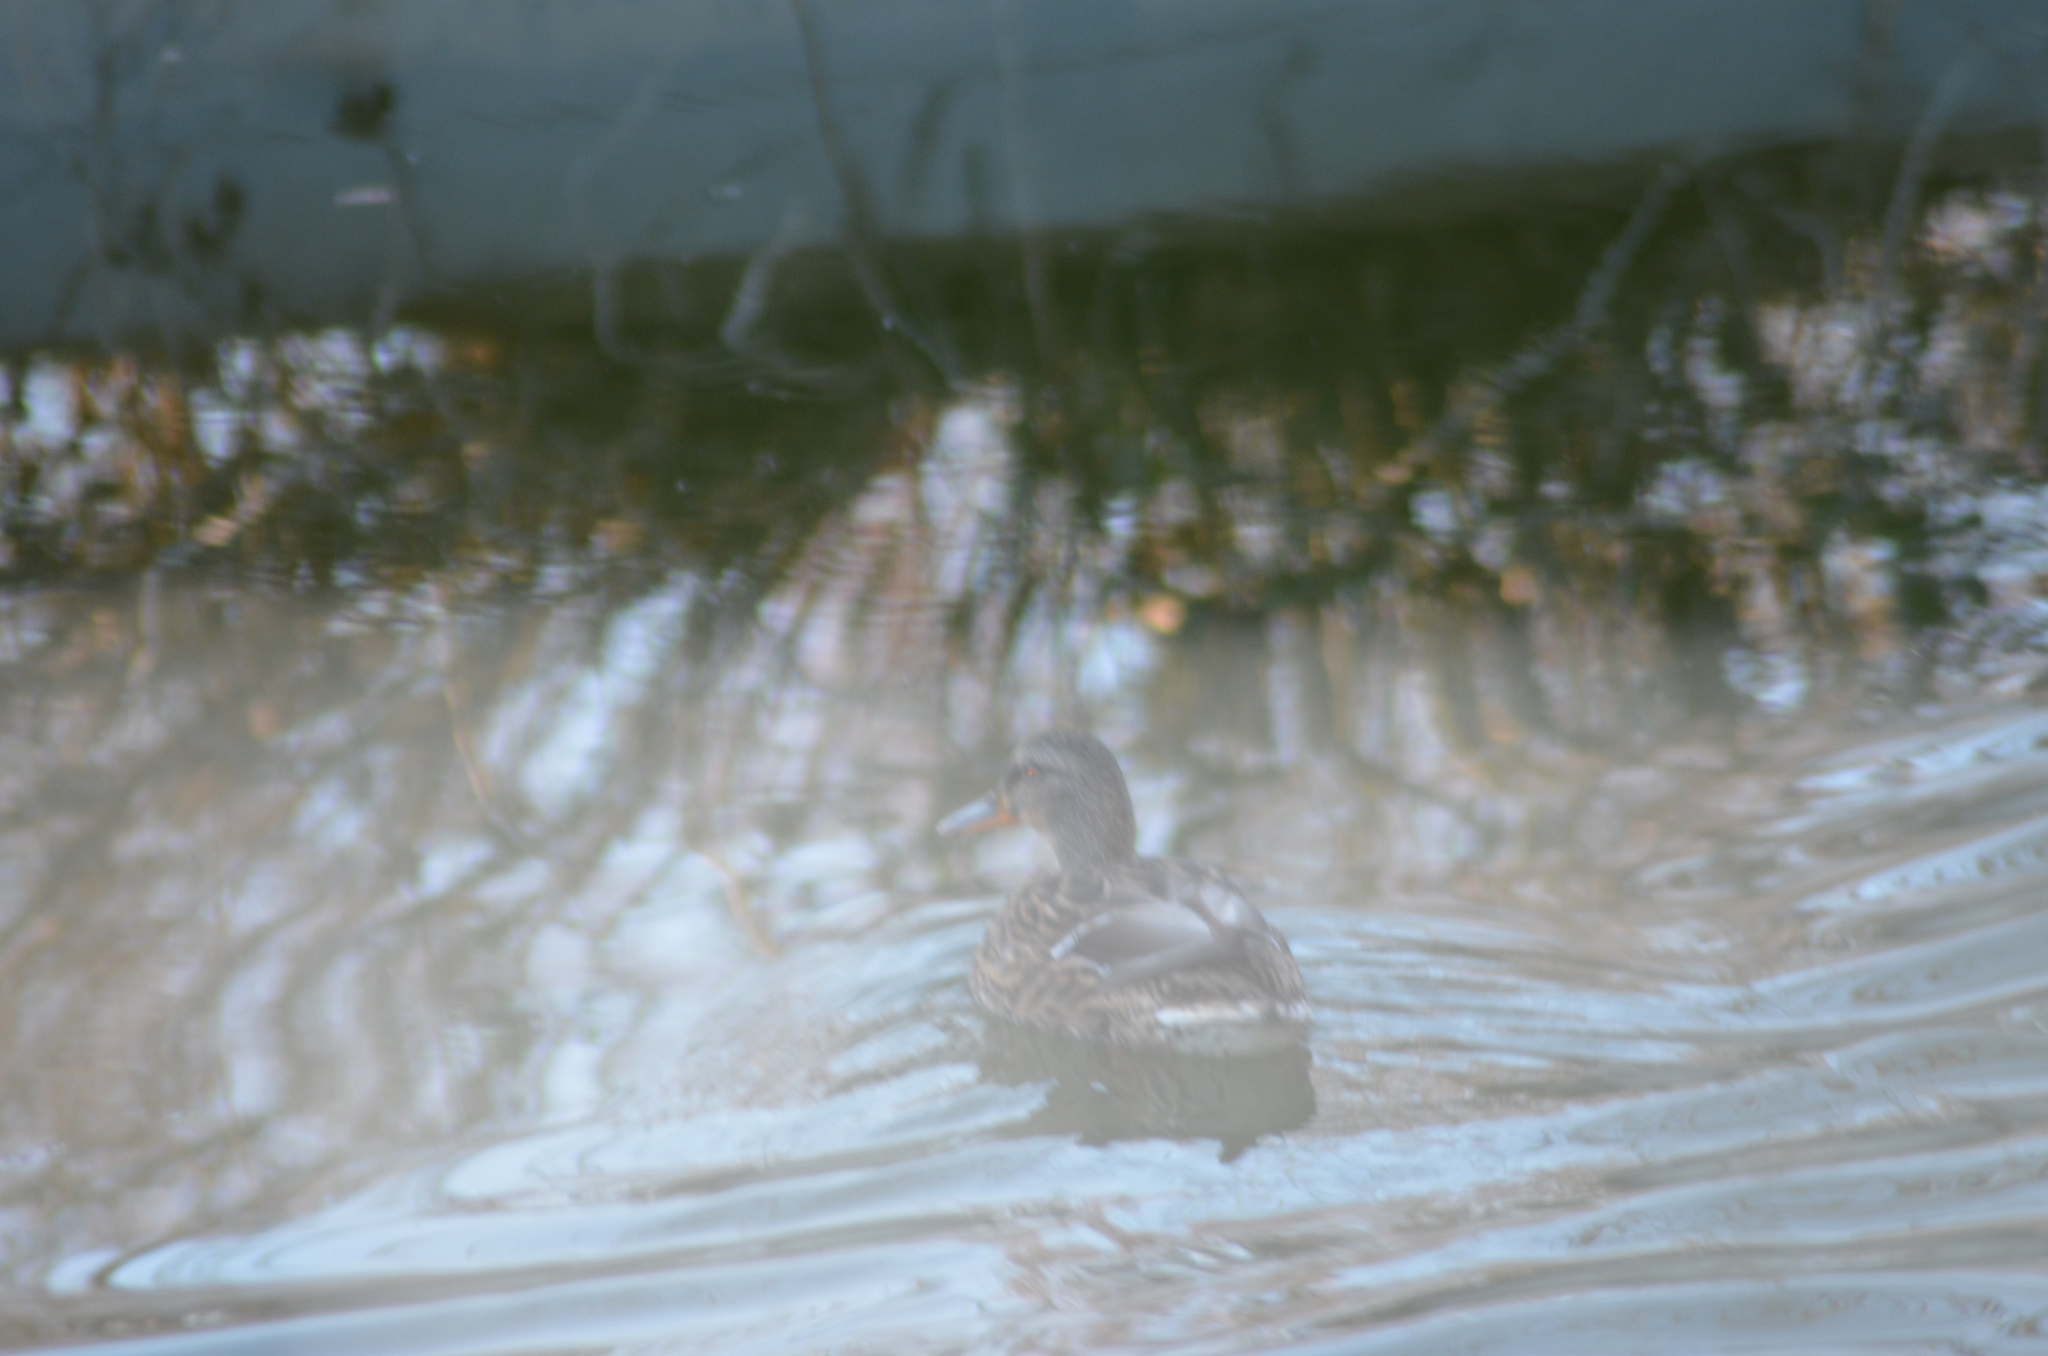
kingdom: Animalia
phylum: Chordata
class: Aves
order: Anseriformes
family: Anatidae
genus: Anas
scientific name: Anas platyrhynchos
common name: Mallard
